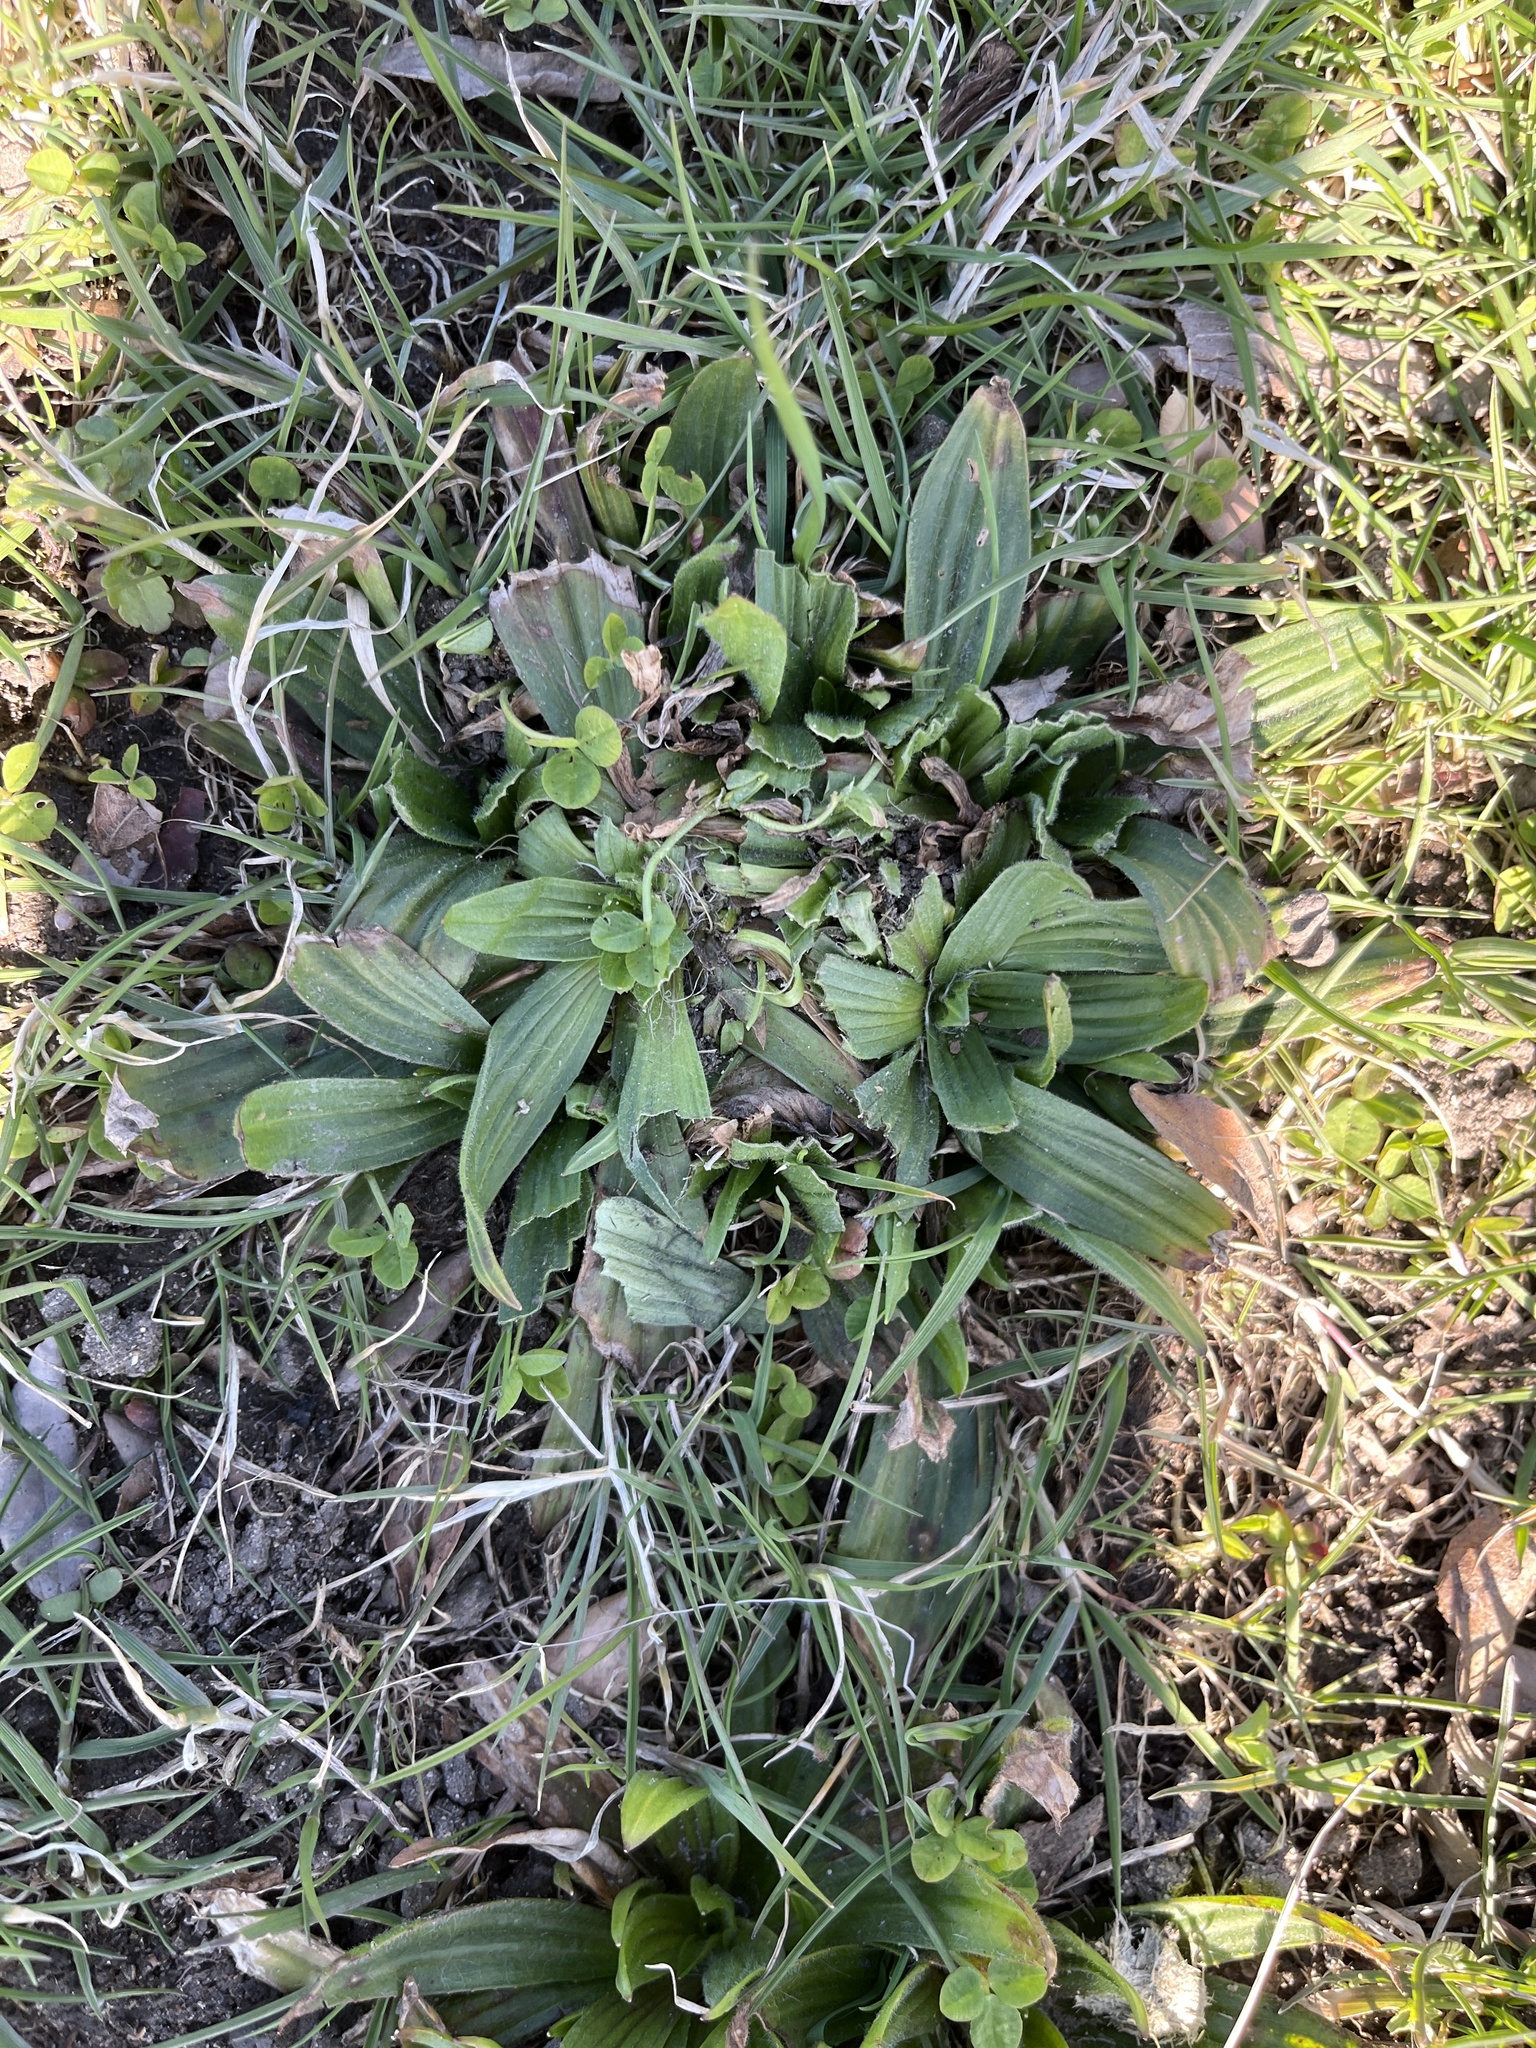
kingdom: Plantae
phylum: Tracheophyta
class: Magnoliopsida
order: Lamiales
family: Plantaginaceae
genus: Plantago
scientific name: Plantago lanceolata
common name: Ribwort plantain
